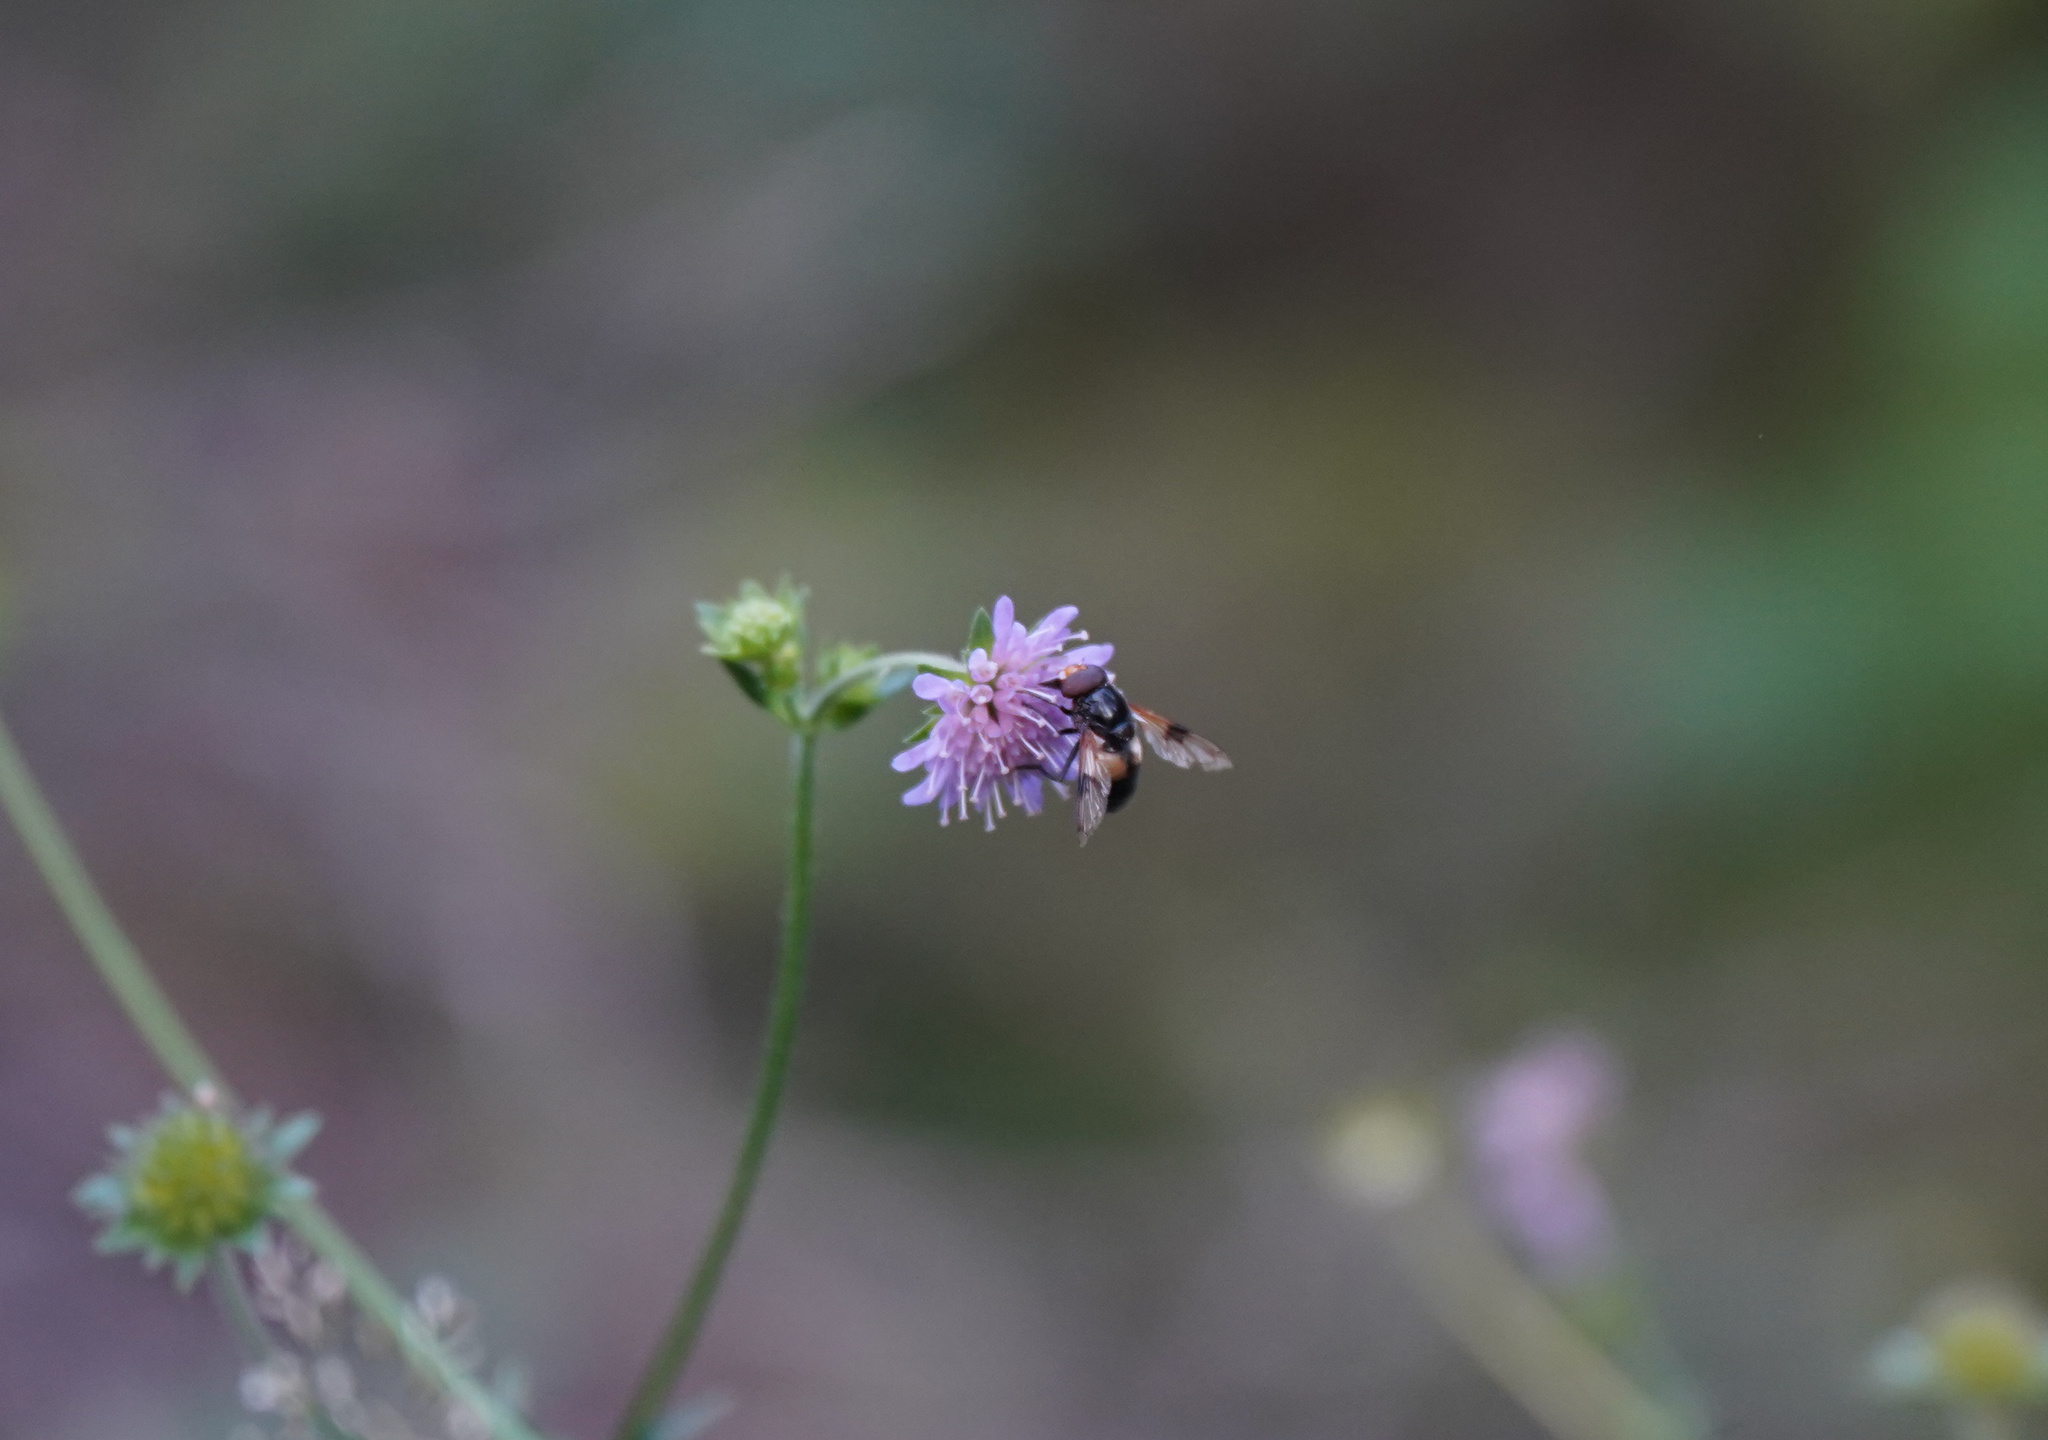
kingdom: Animalia
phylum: Arthropoda
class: Insecta
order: Diptera
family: Syrphidae
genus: Volucella
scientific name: Volucella pellucens
